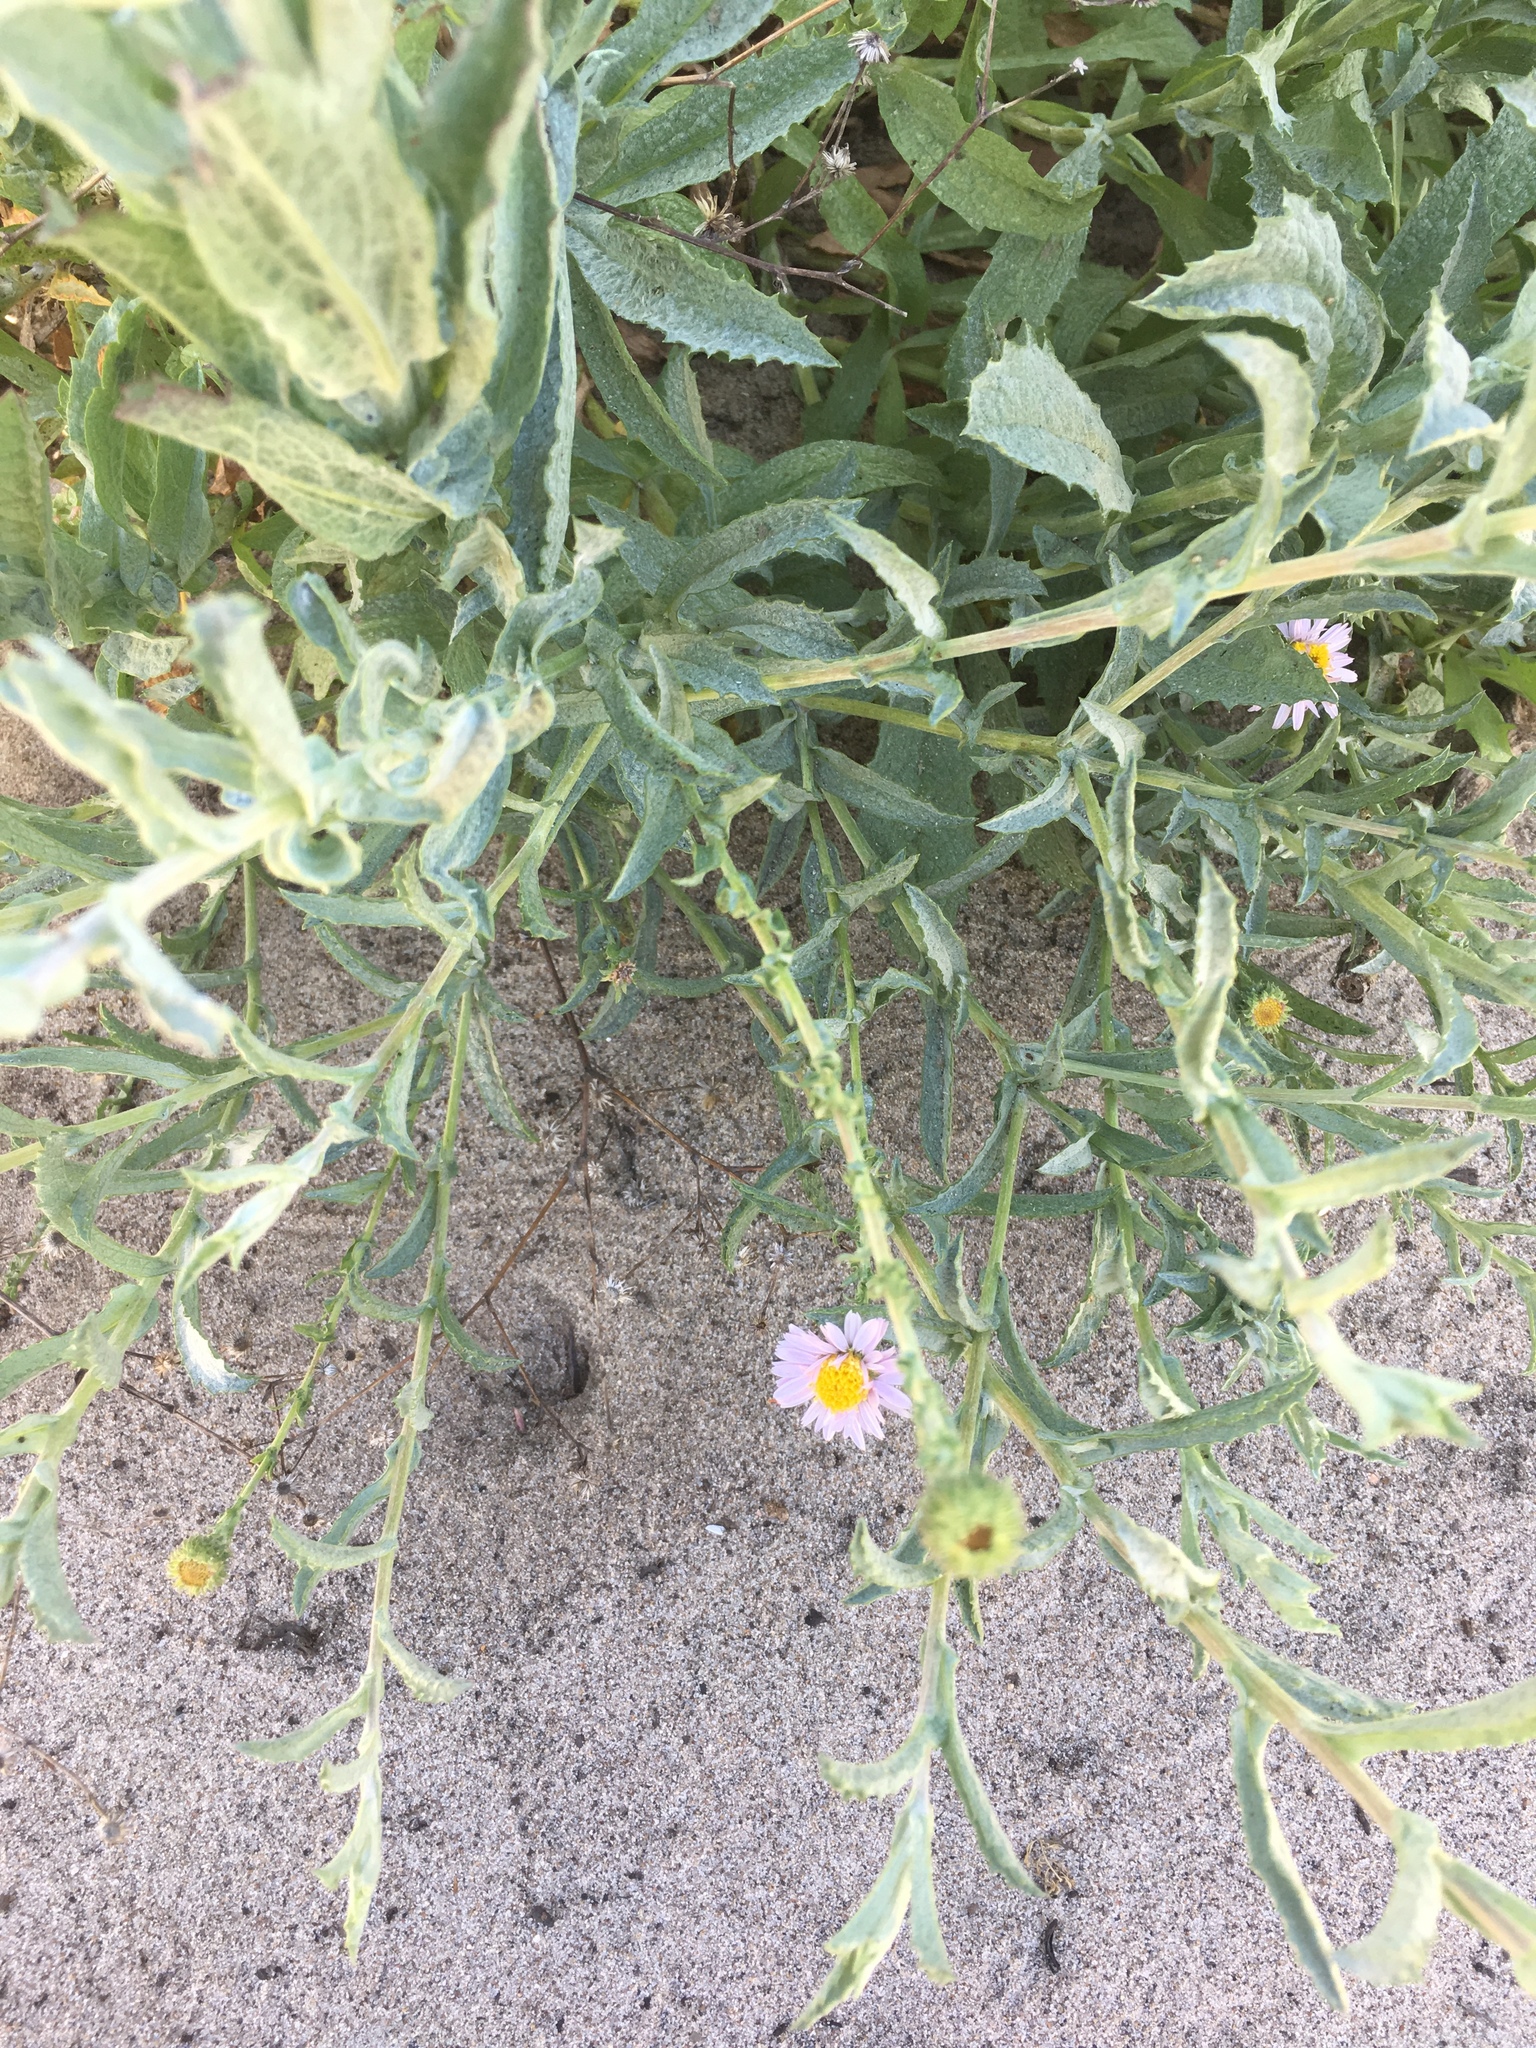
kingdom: Plantae
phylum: Tracheophyta
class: Magnoliopsida
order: Asterales
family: Asteraceae
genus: Corethrogyne
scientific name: Corethrogyne filaginifolia
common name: Sand-aster
